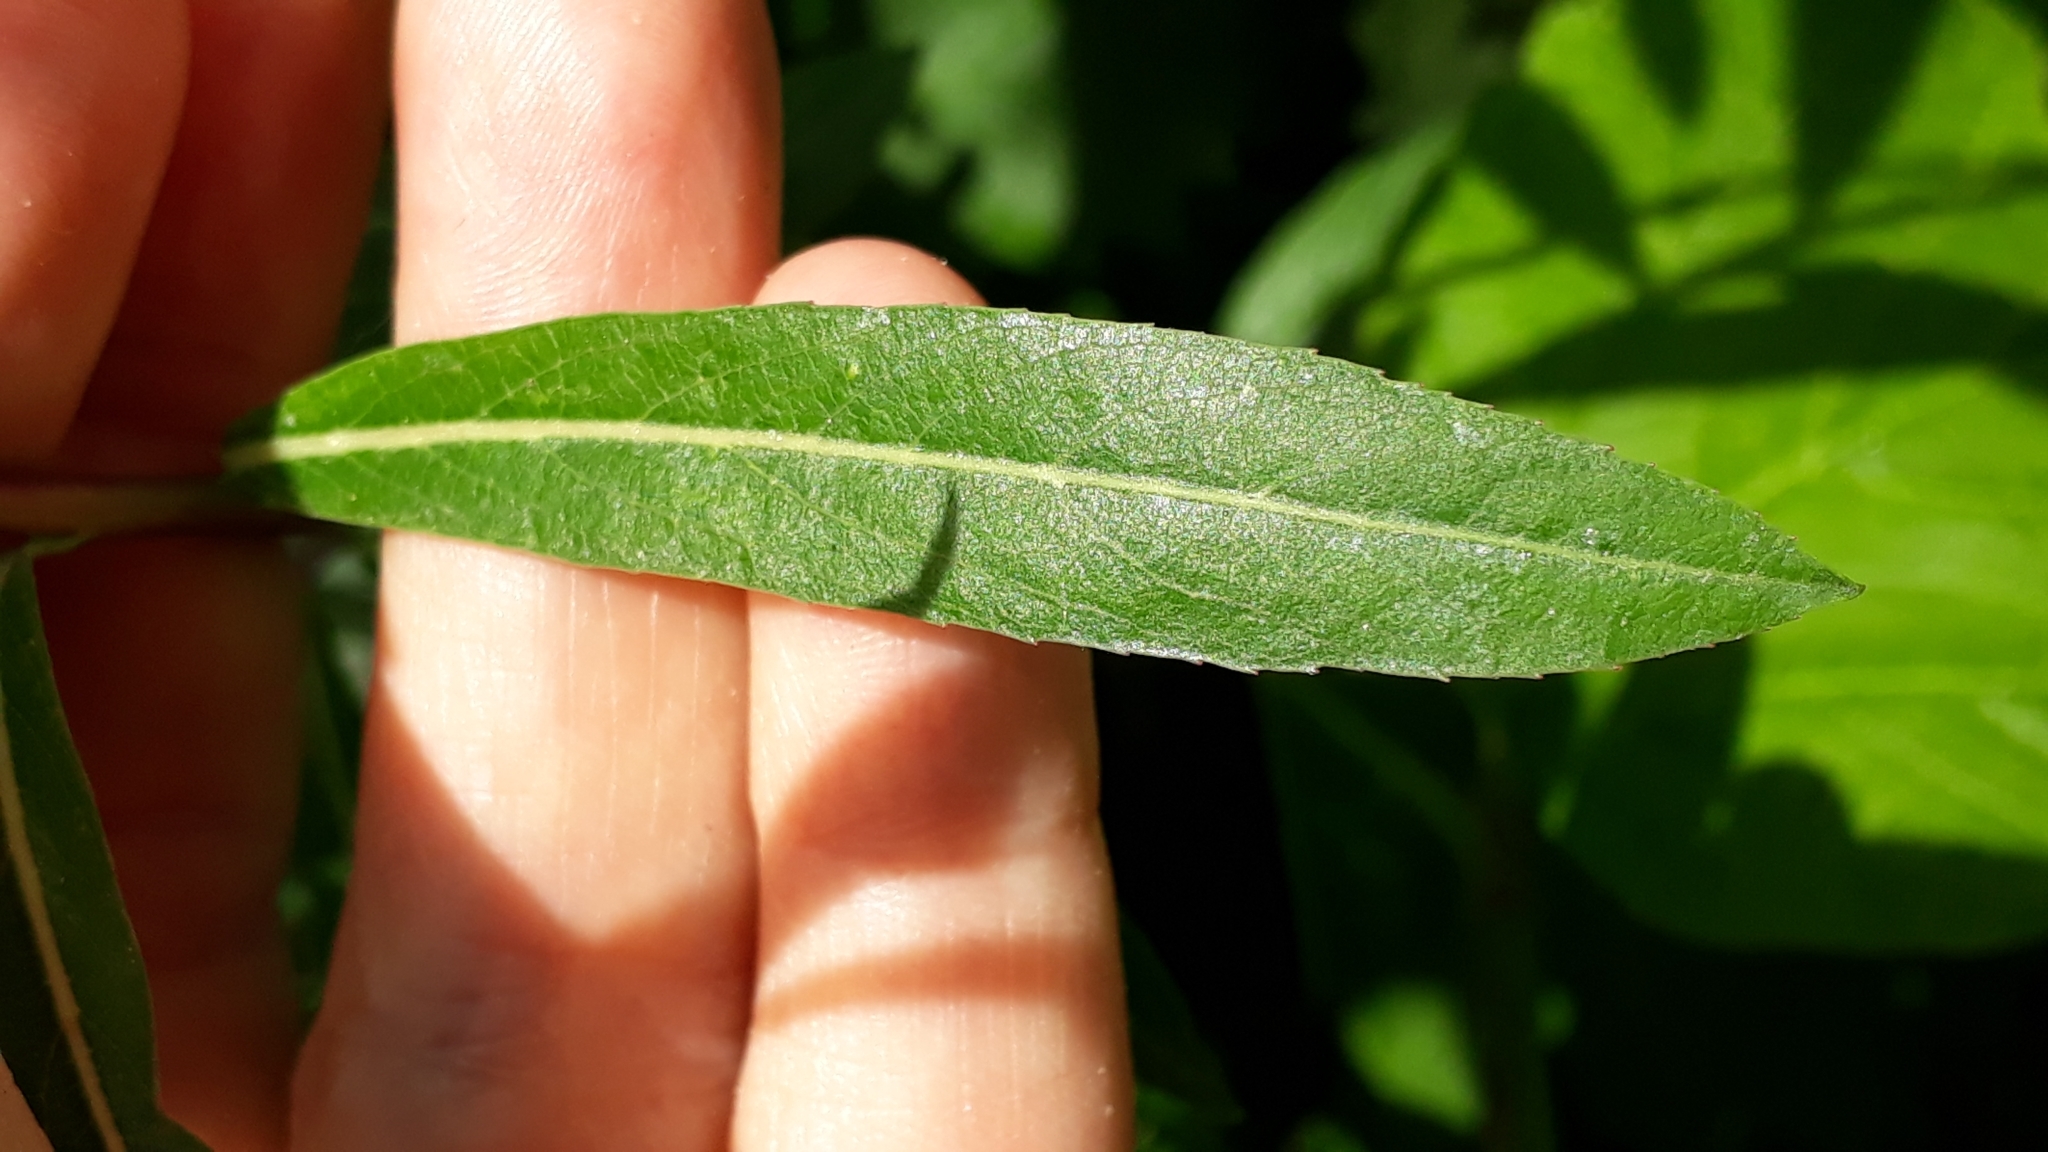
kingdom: Plantae
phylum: Tracheophyta
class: Magnoliopsida
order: Malpighiales
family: Salicaceae
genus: Salix
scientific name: Salix purpurea
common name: Purple willow
